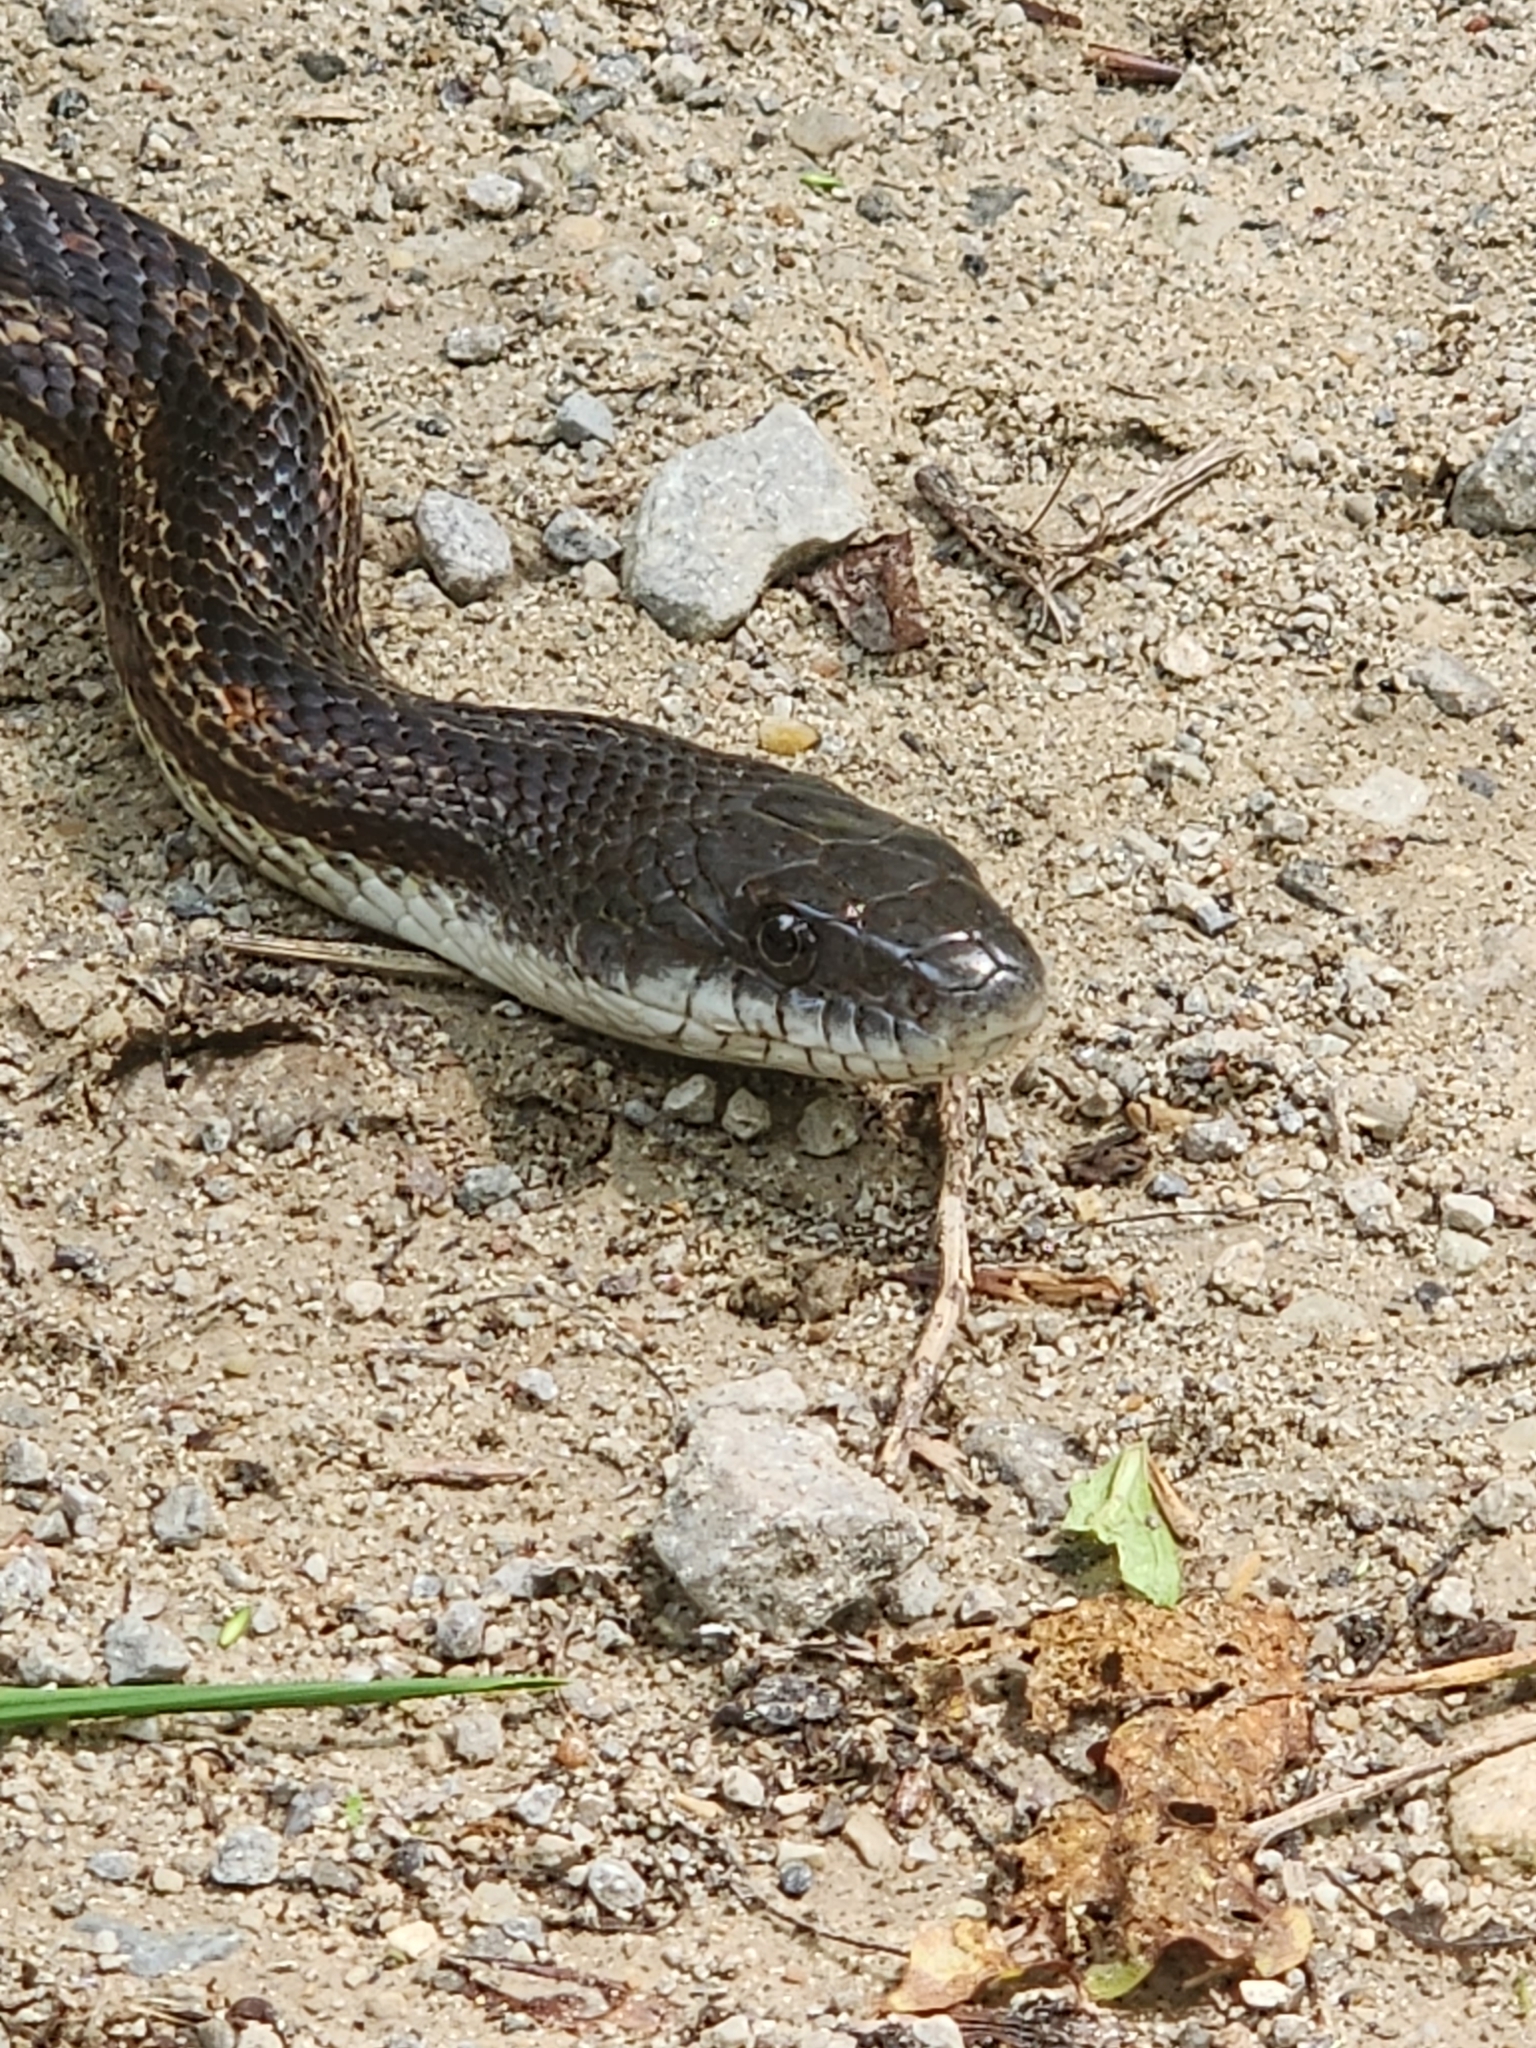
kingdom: Animalia
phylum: Chordata
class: Squamata
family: Colubridae
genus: Pantherophis
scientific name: Pantherophis spiloides
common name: Gray rat snake
